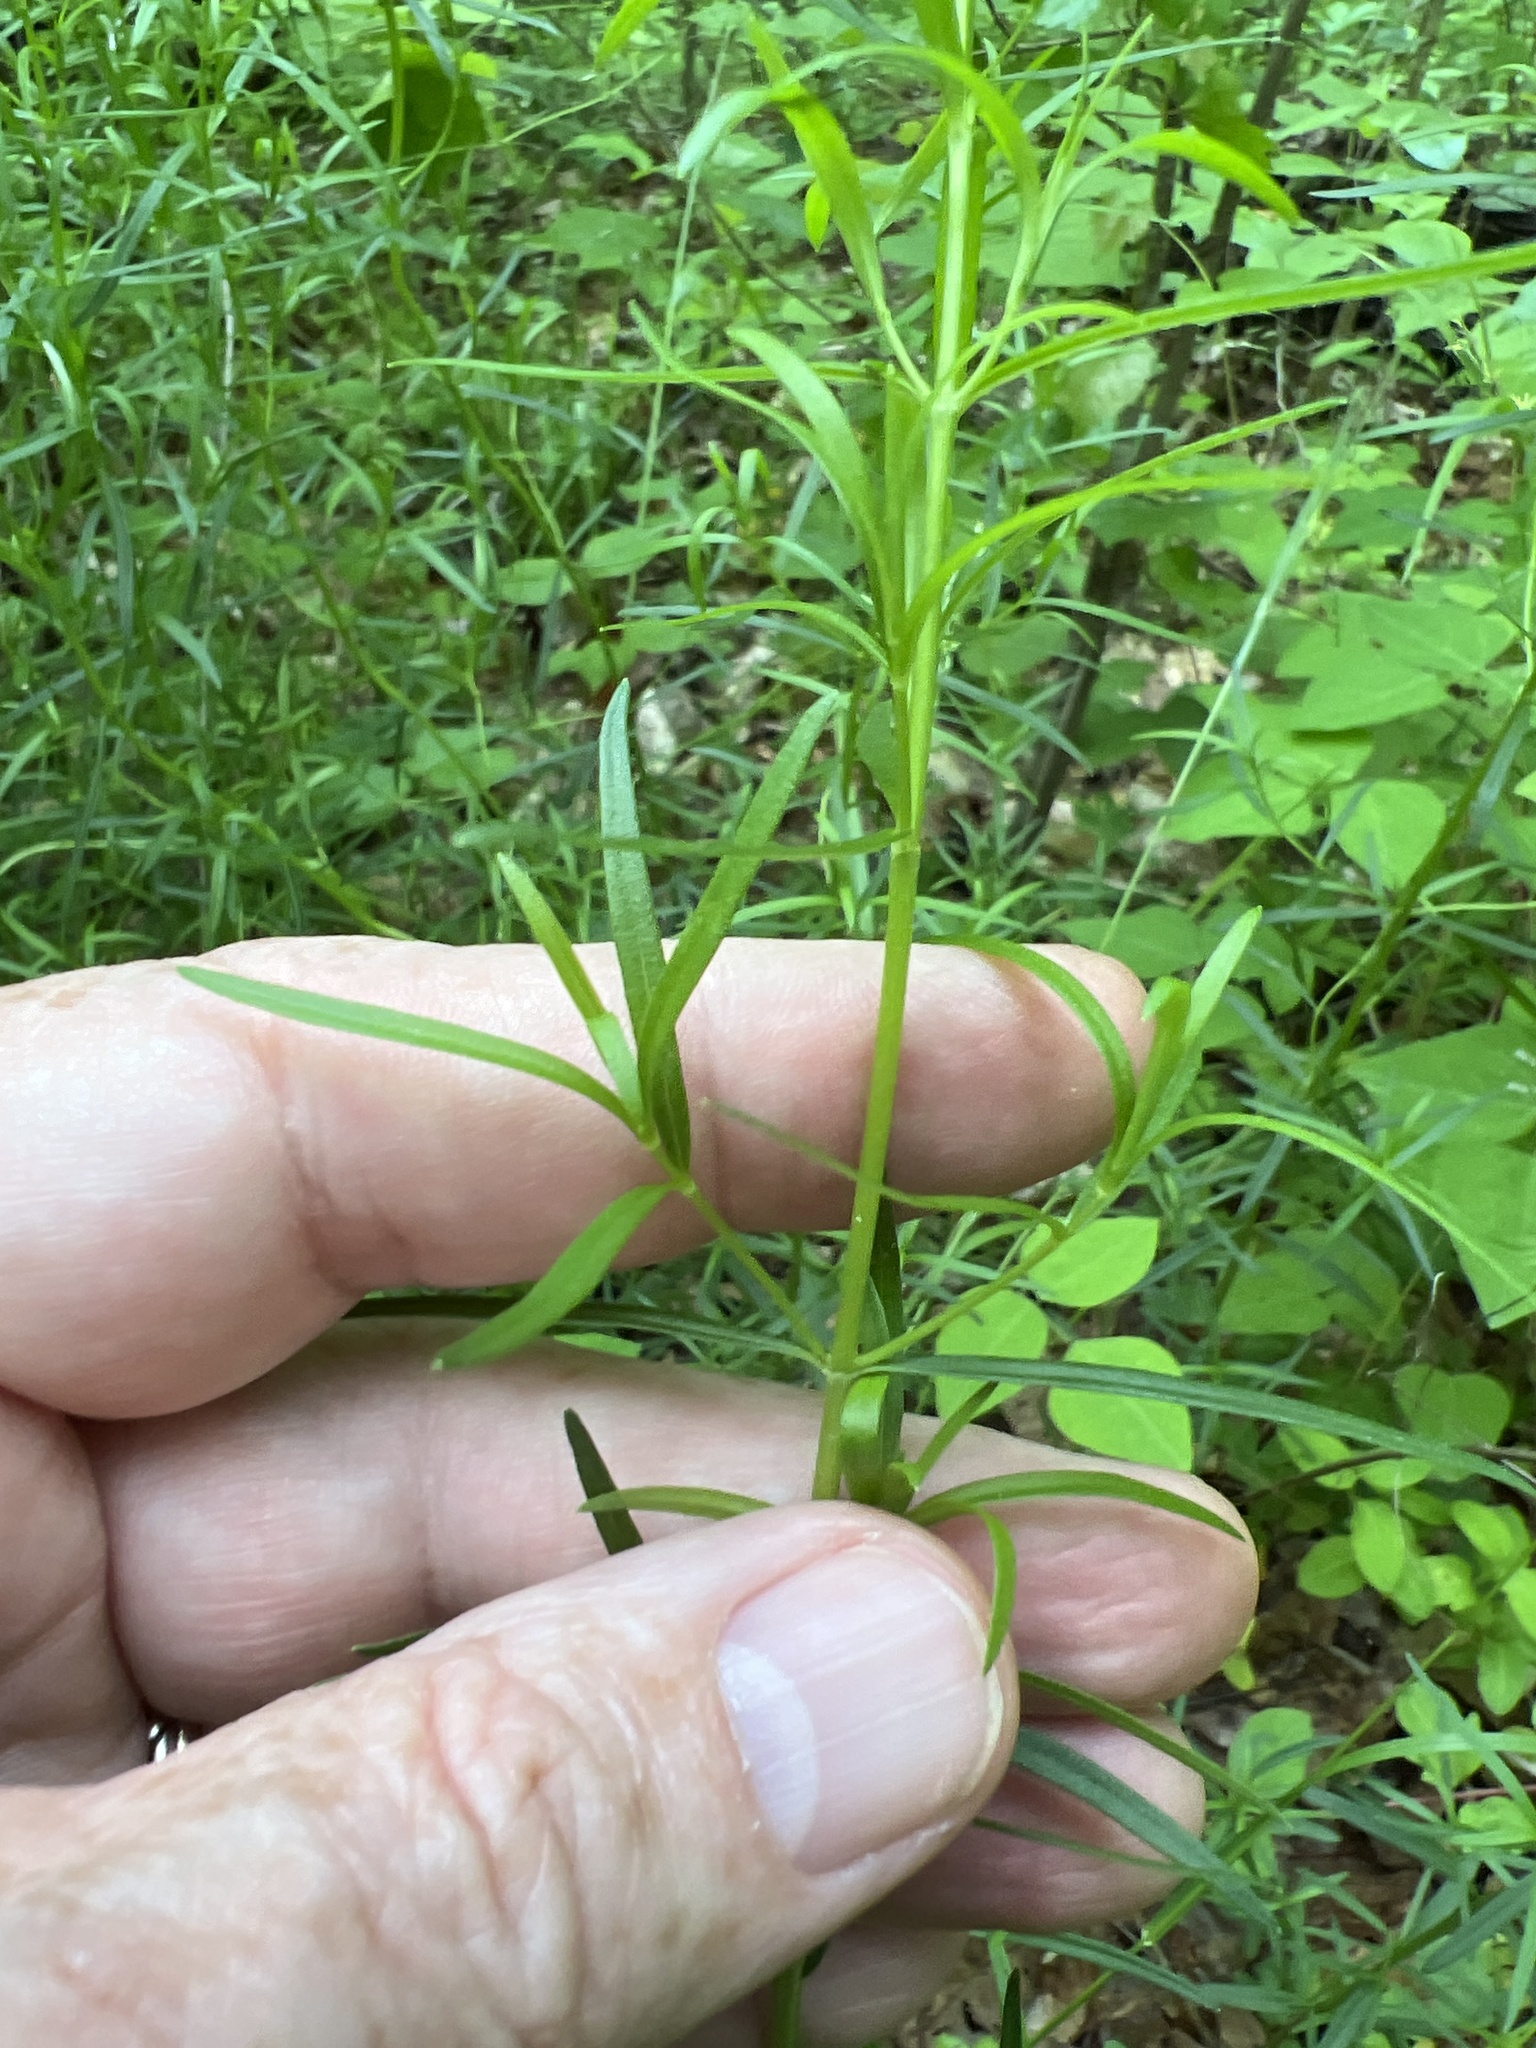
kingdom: Plantae
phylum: Tracheophyta
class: Magnoliopsida
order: Lamiales
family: Lamiaceae
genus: Pycnanthemum
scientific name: Pycnanthemum tenuifolium
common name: Narrow-leaf mountain-mint
